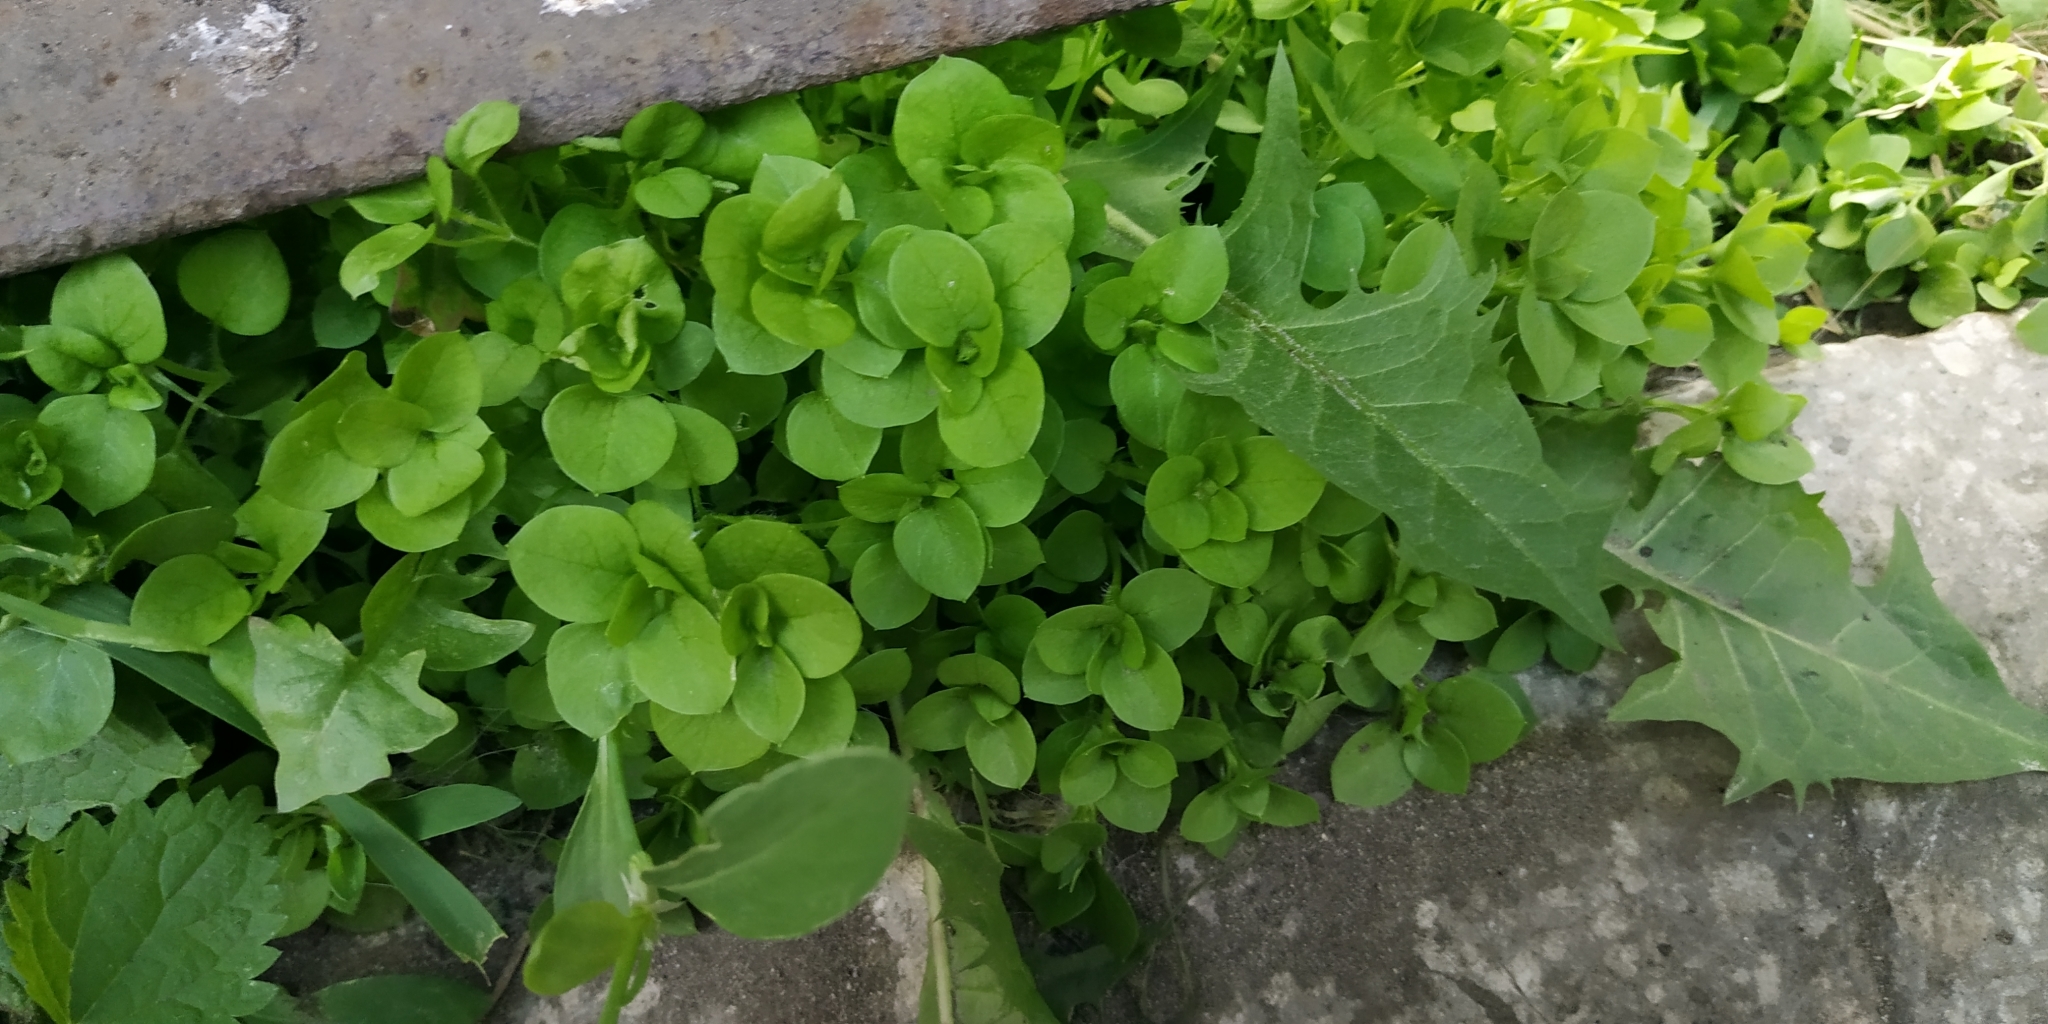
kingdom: Plantae
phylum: Tracheophyta
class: Magnoliopsida
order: Caryophyllales
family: Caryophyllaceae
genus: Stellaria
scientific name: Stellaria media
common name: Common chickweed
